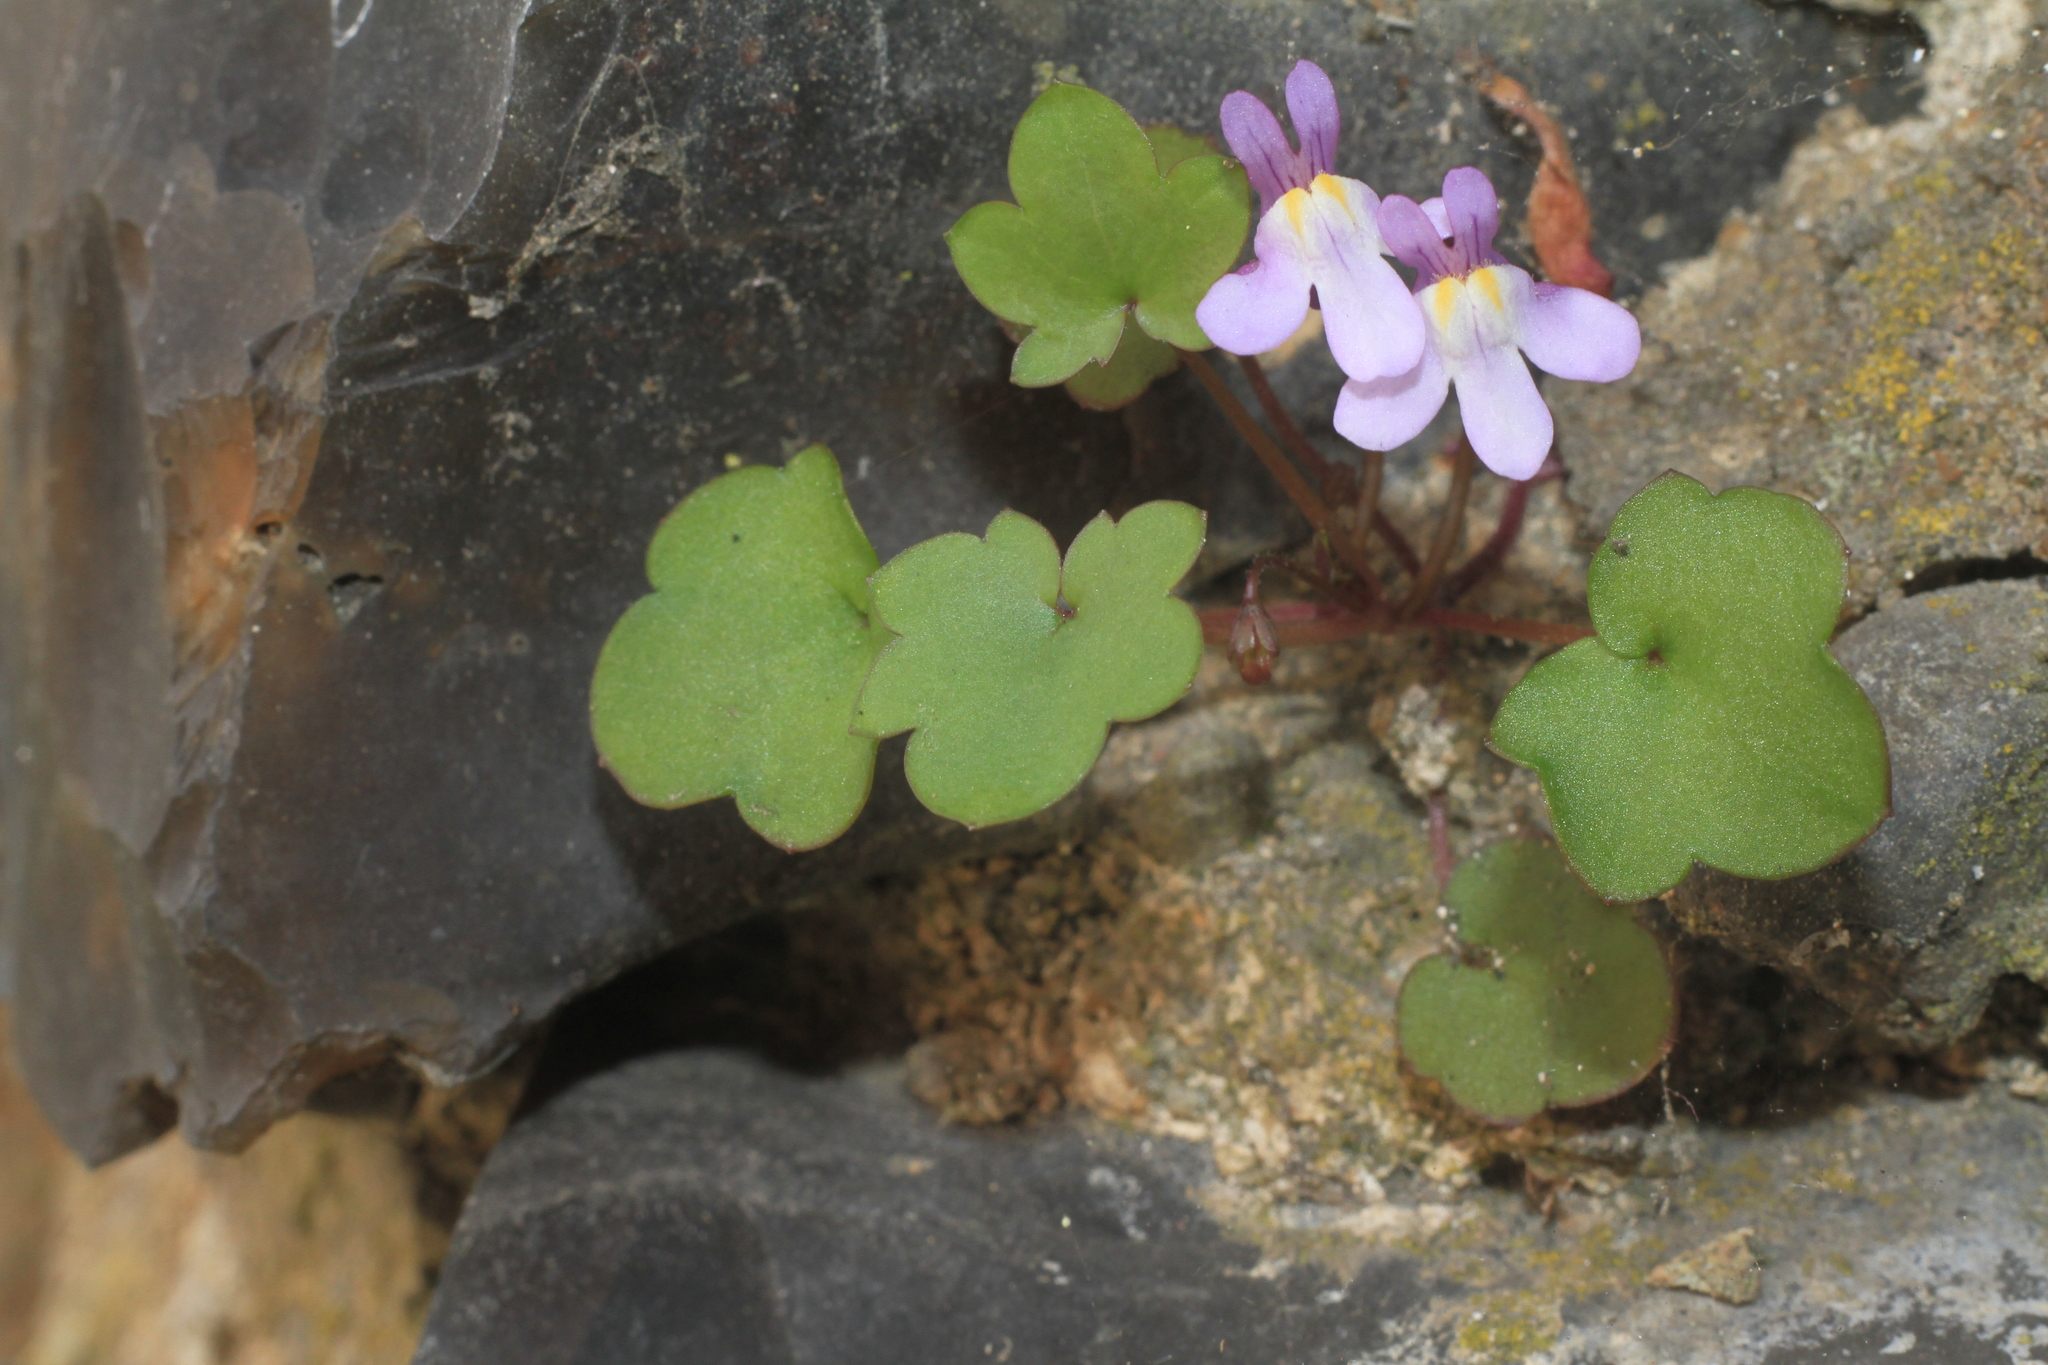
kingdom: Plantae
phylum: Tracheophyta
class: Magnoliopsida
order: Lamiales
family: Plantaginaceae
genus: Cymbalaria
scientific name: Cymbalaria muralis
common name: Ivy-leaved toadflax
